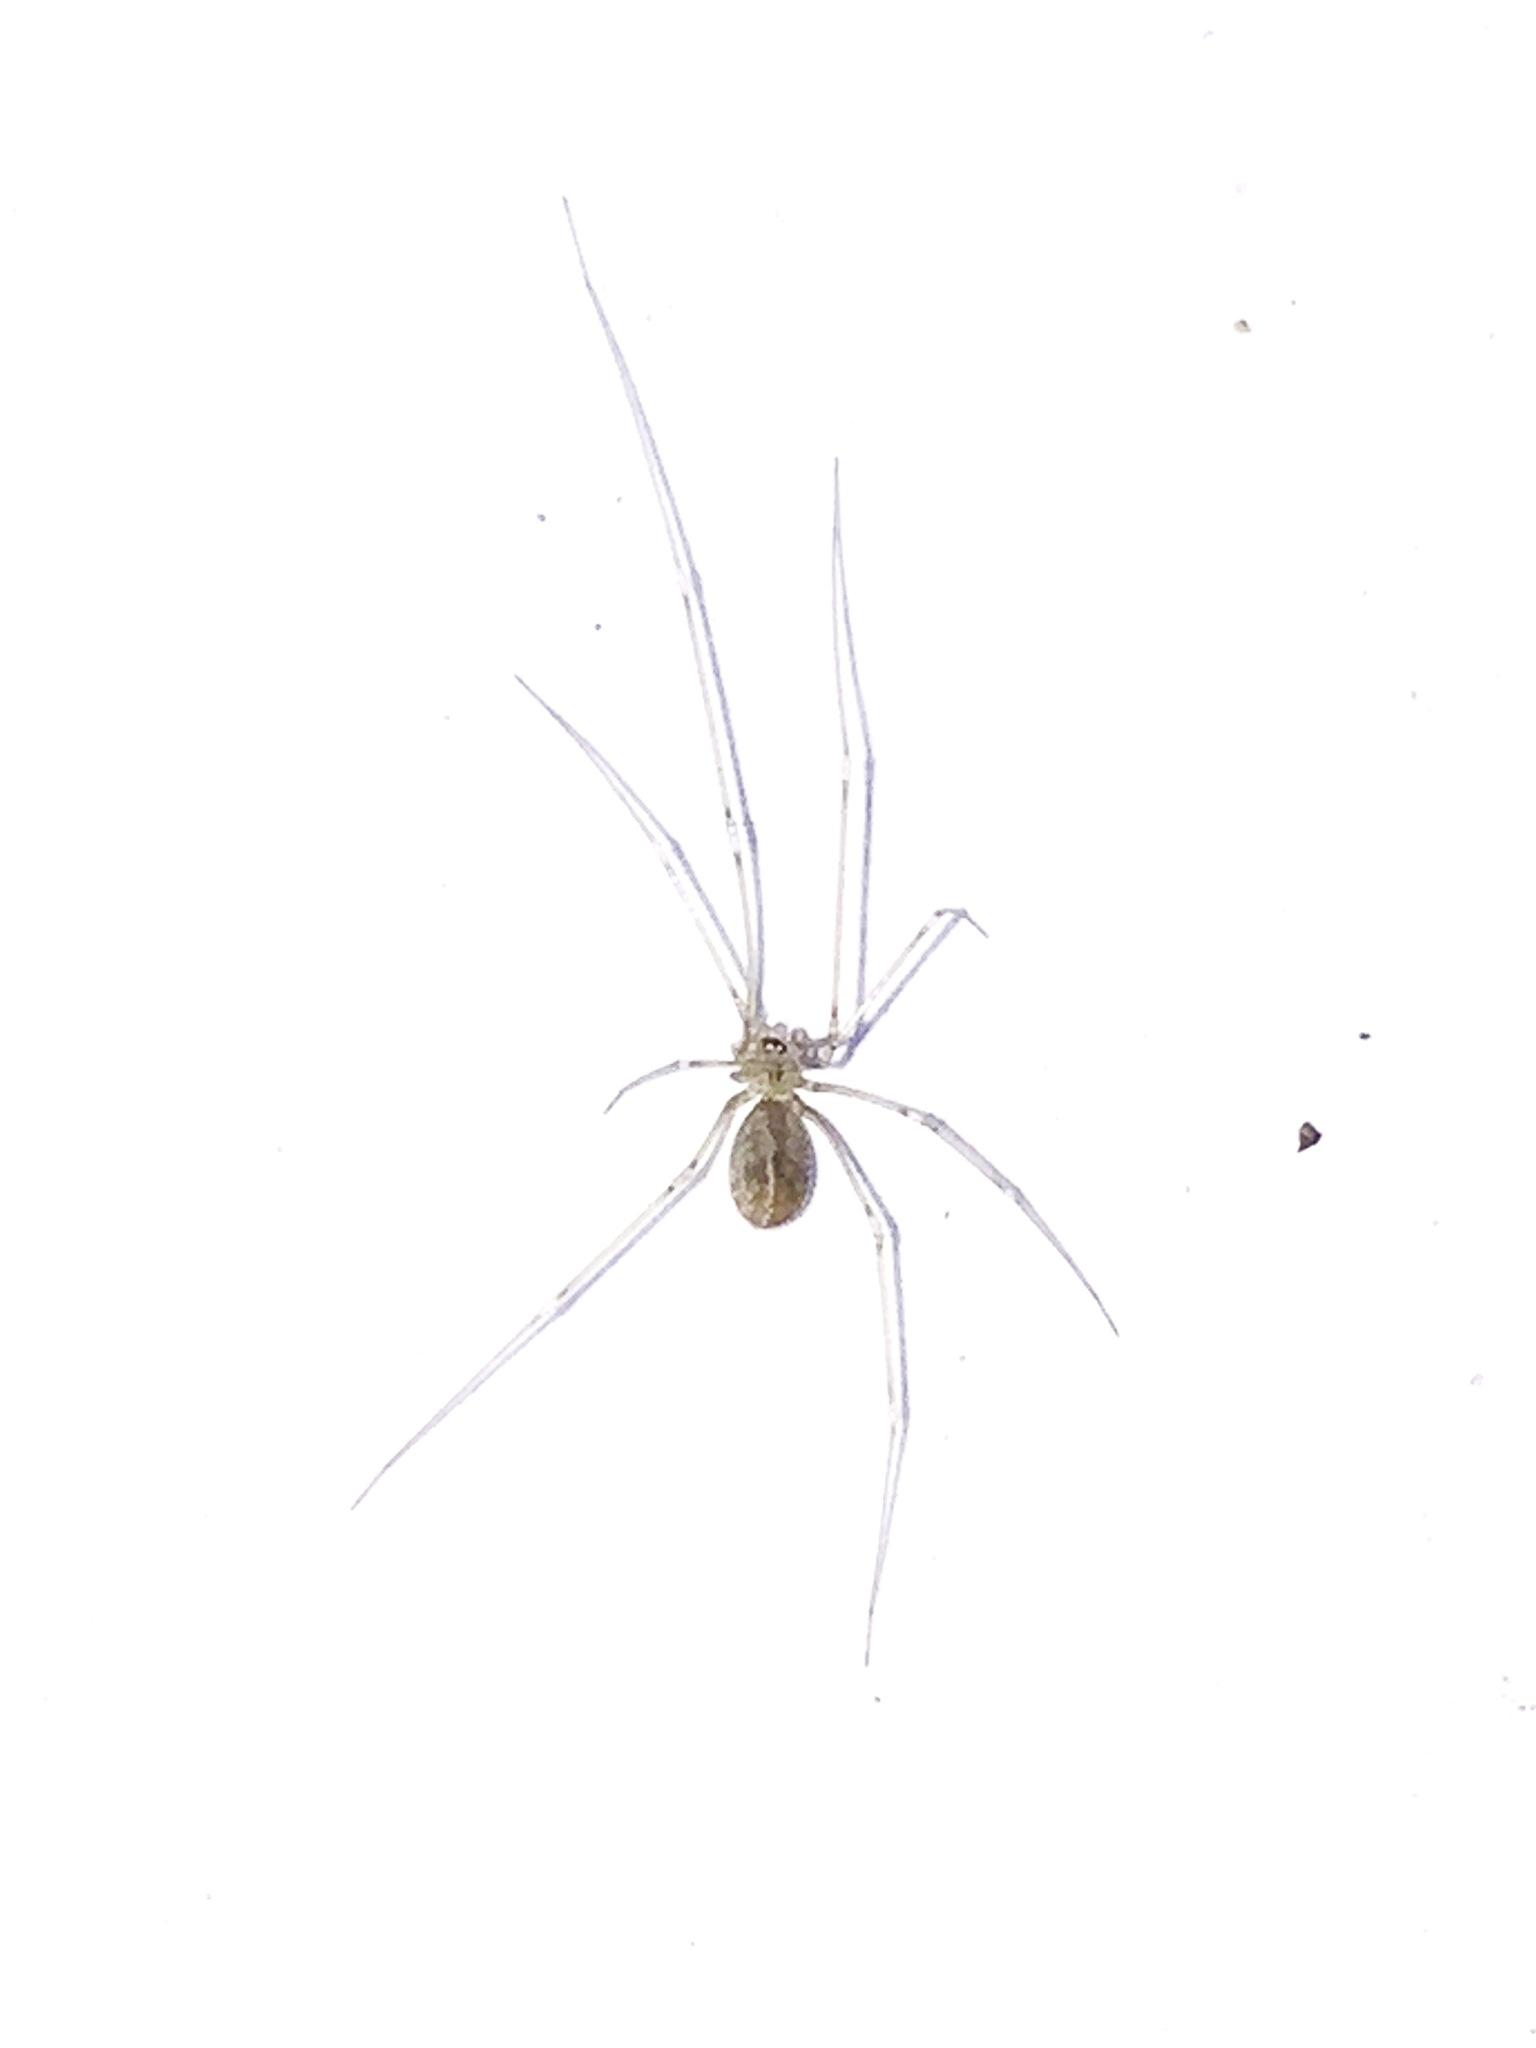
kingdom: Animalia
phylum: Arthropoda
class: Arachnida
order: Araneae
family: Pholcidae
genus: Pholcus
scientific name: Pholcus manueli
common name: Cellar spider
